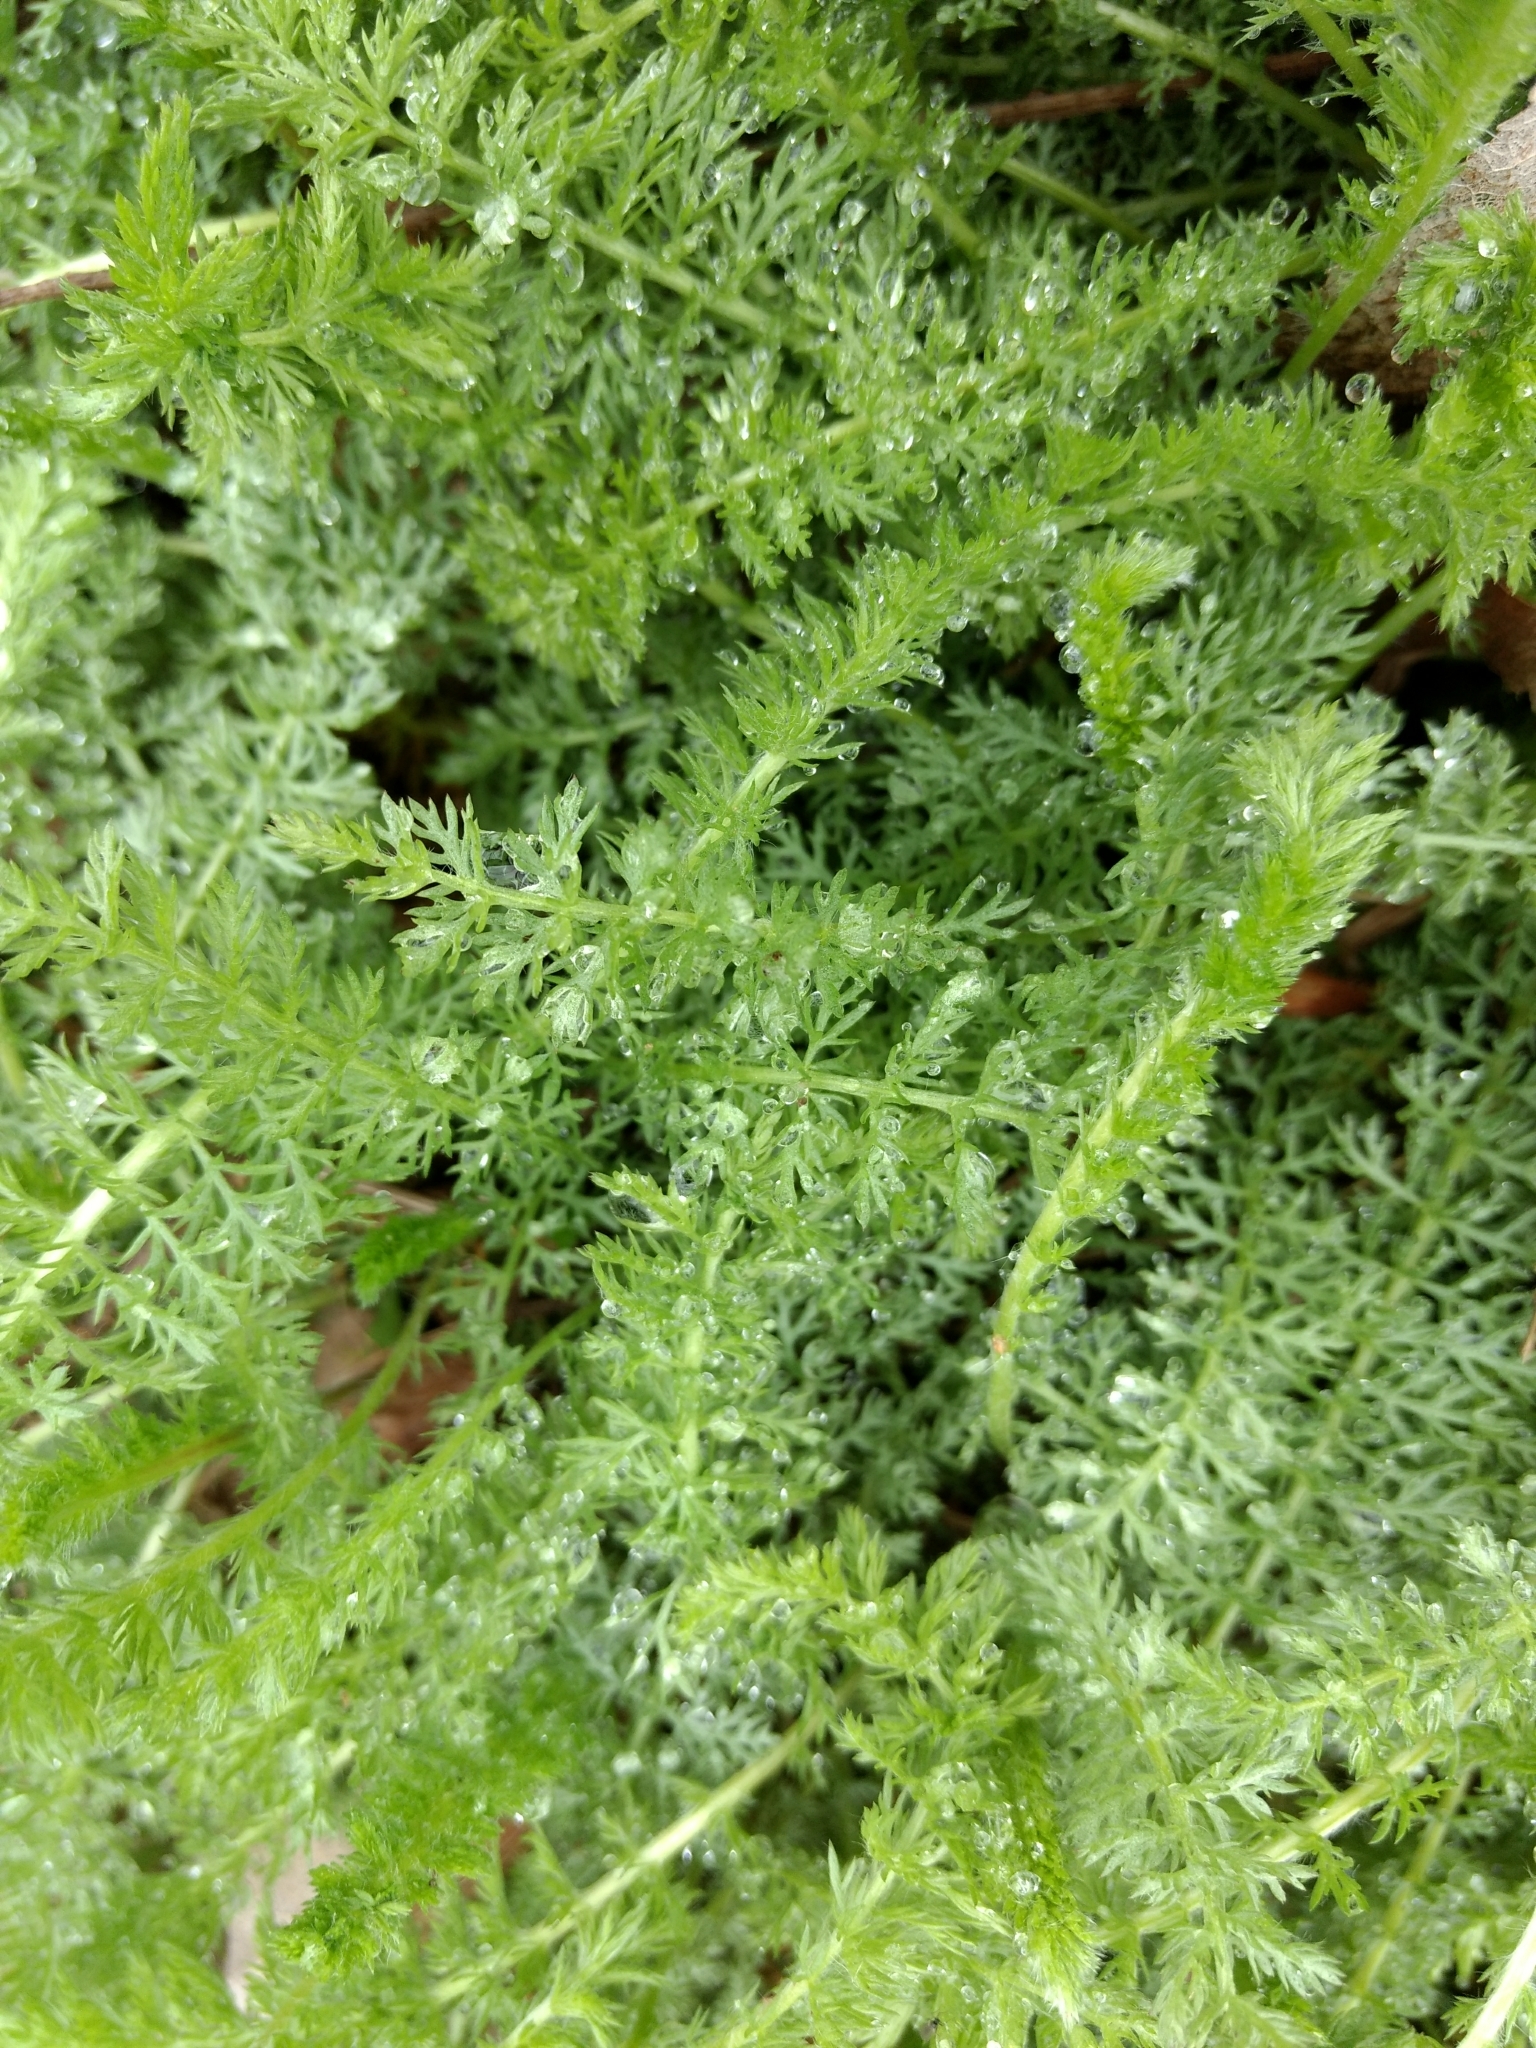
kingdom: Plantae
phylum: Tracheophyta
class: Magnoliopsida
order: Asterales
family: Asteraceae
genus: Achillea
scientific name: Achillea millefolium
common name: Yarrow
